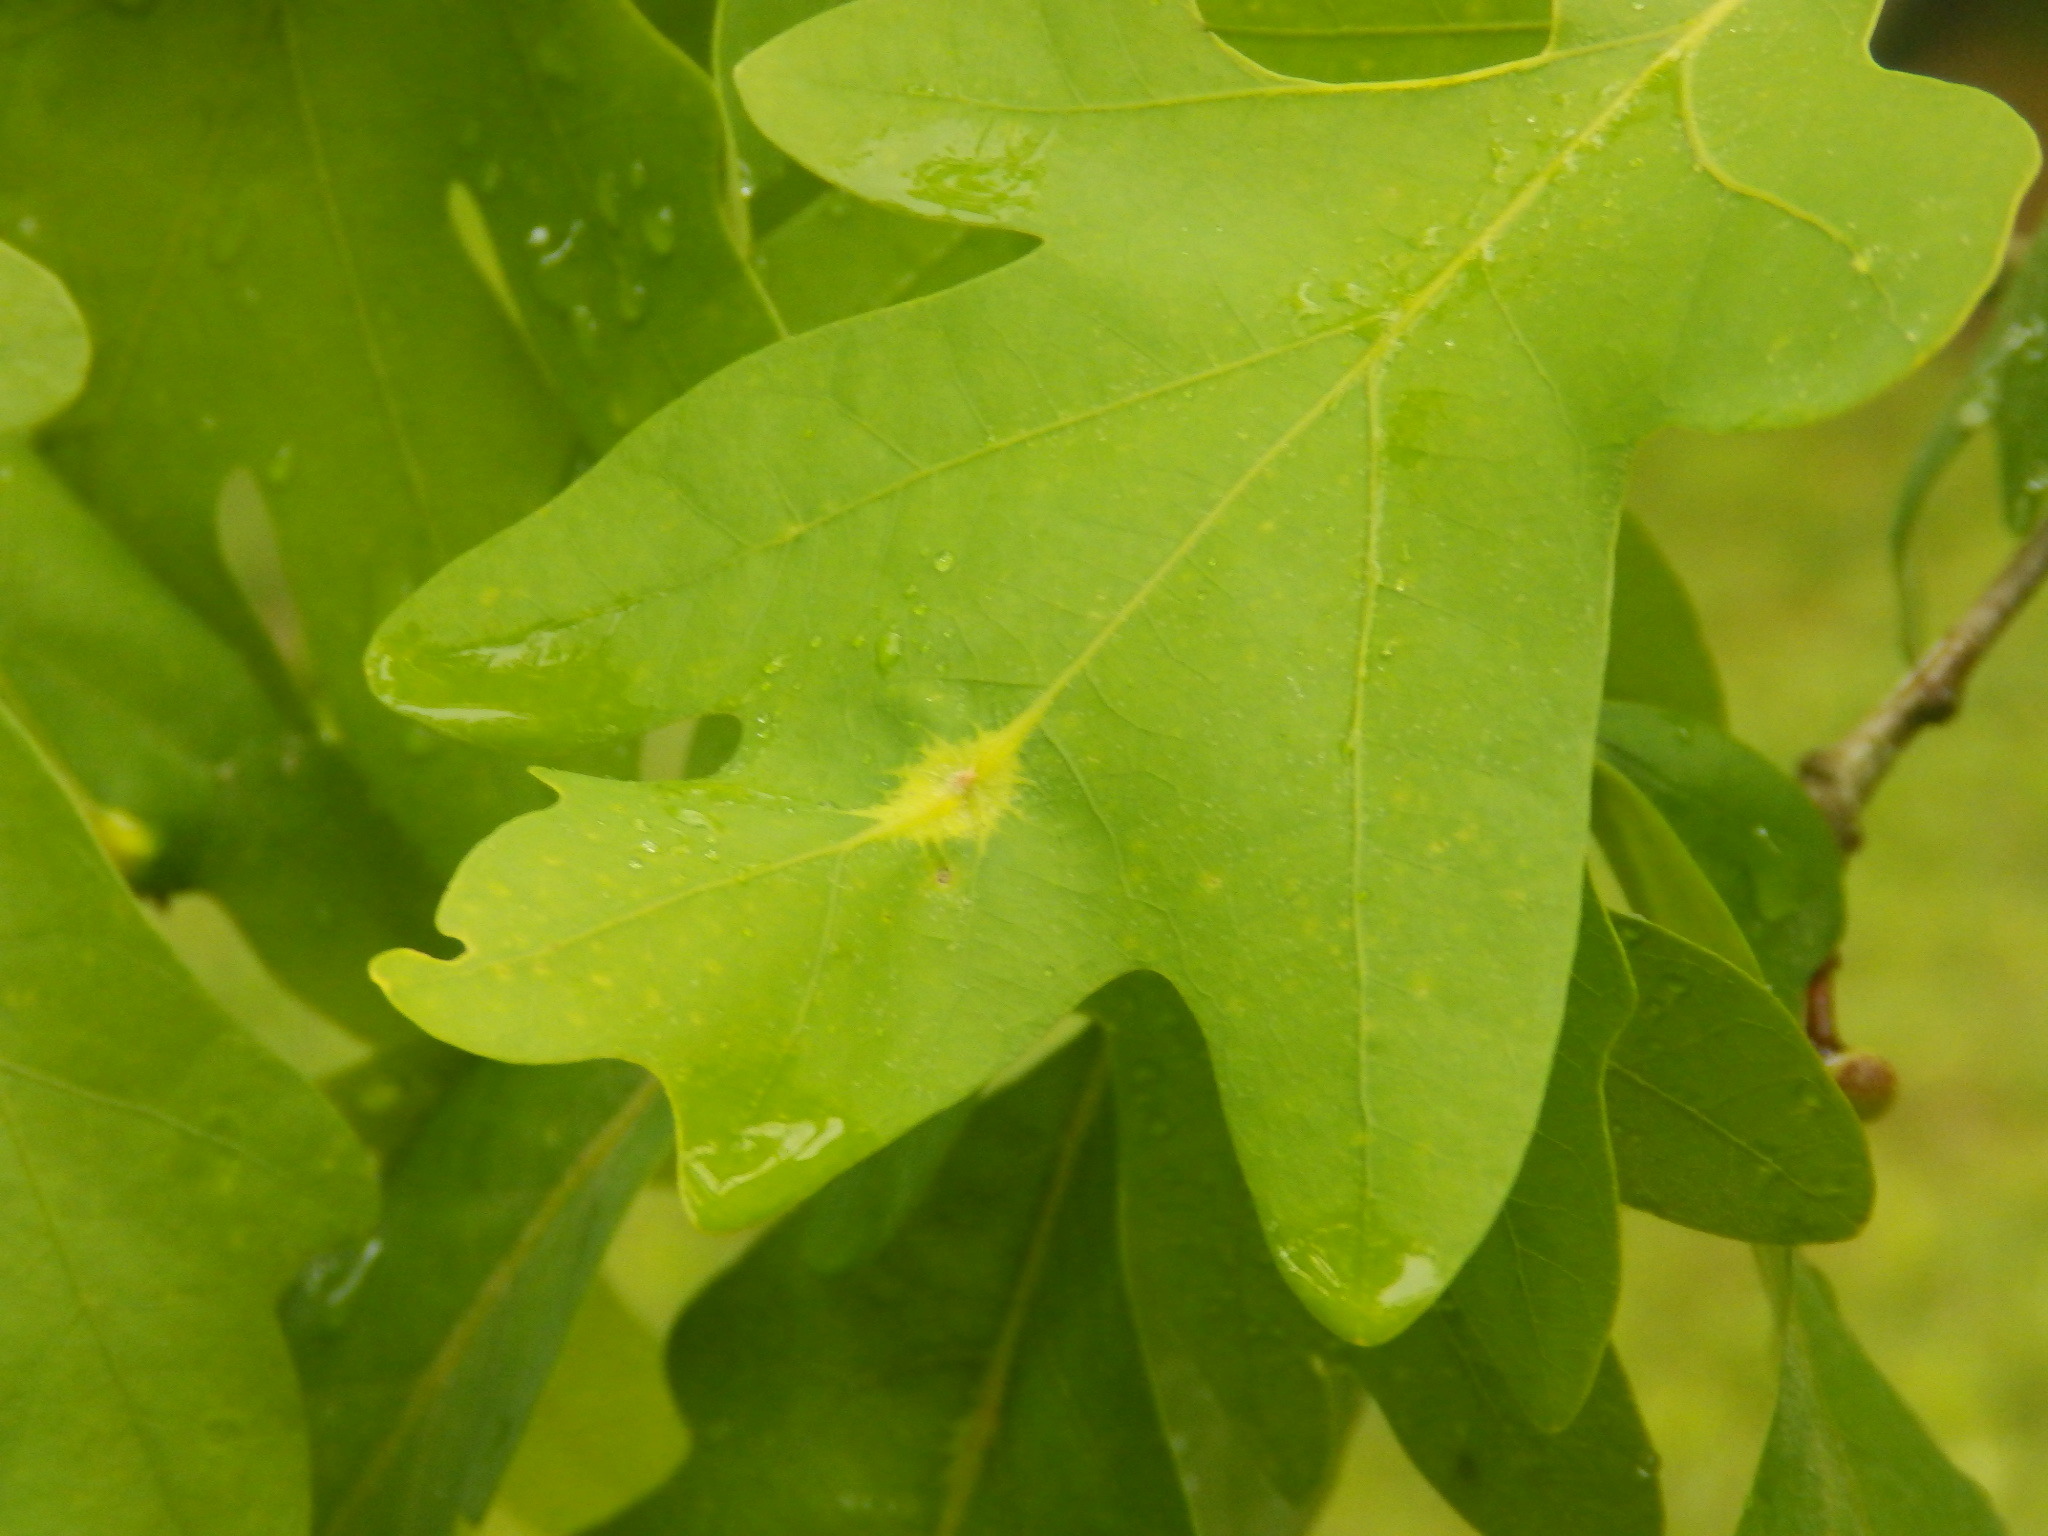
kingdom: Animalia
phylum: Arthropoda
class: Insecta
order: Hemiptera
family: Kermesidae
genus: Nanokermes
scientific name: Nanokermes folium
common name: Leaf kermes
